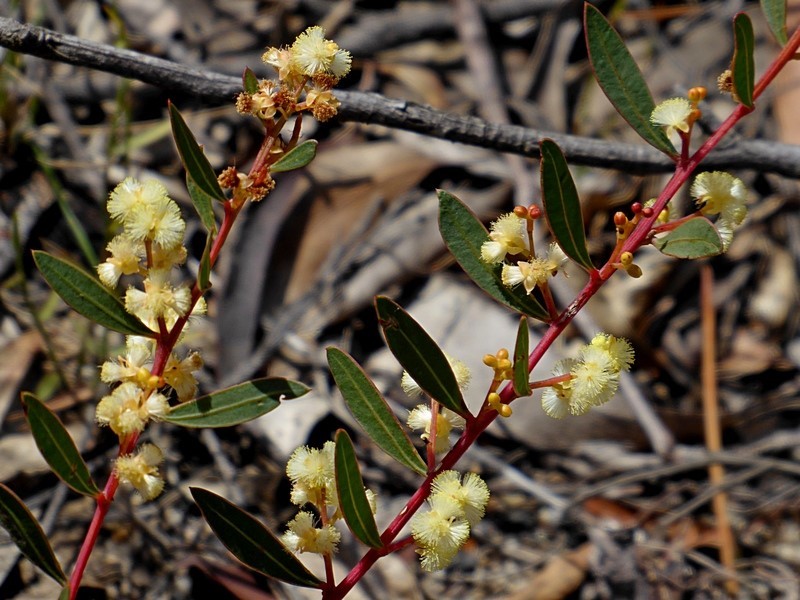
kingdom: Plantae
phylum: Tracheophyta
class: Magnoliopsida
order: Fabales
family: Fabaceae
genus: Acacia
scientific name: Acacia myrtifolia
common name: Myrtle wattle
